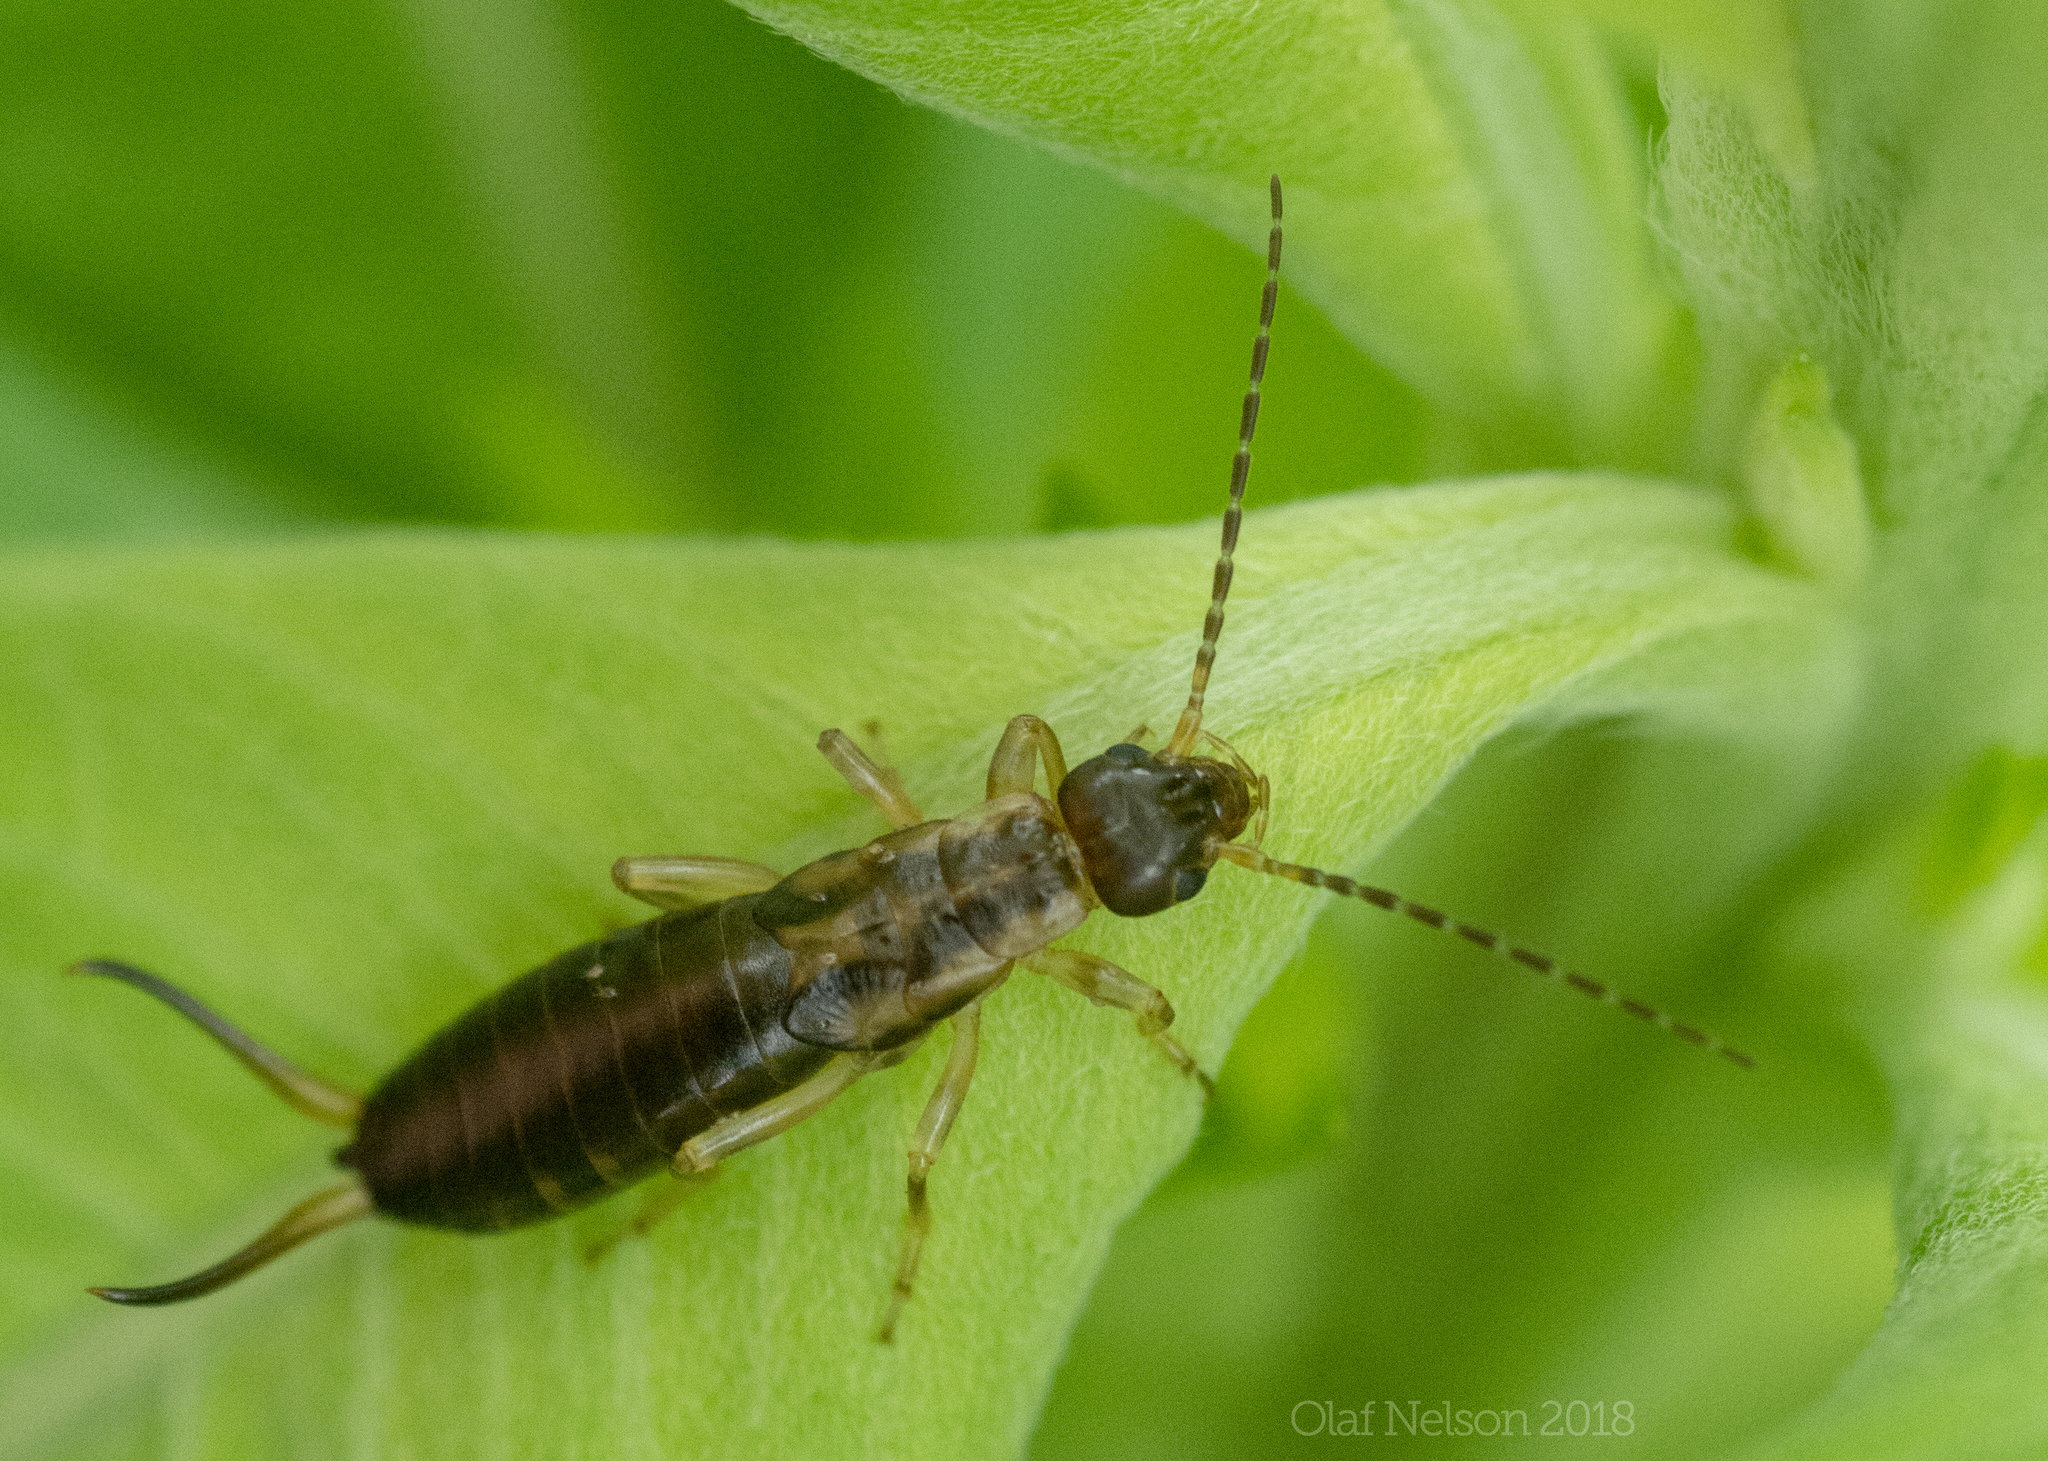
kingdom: Animalia
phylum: Arthropoda
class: Insecta
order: Dermaptera
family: Forficulidae
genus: Forficula
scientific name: Forficula
